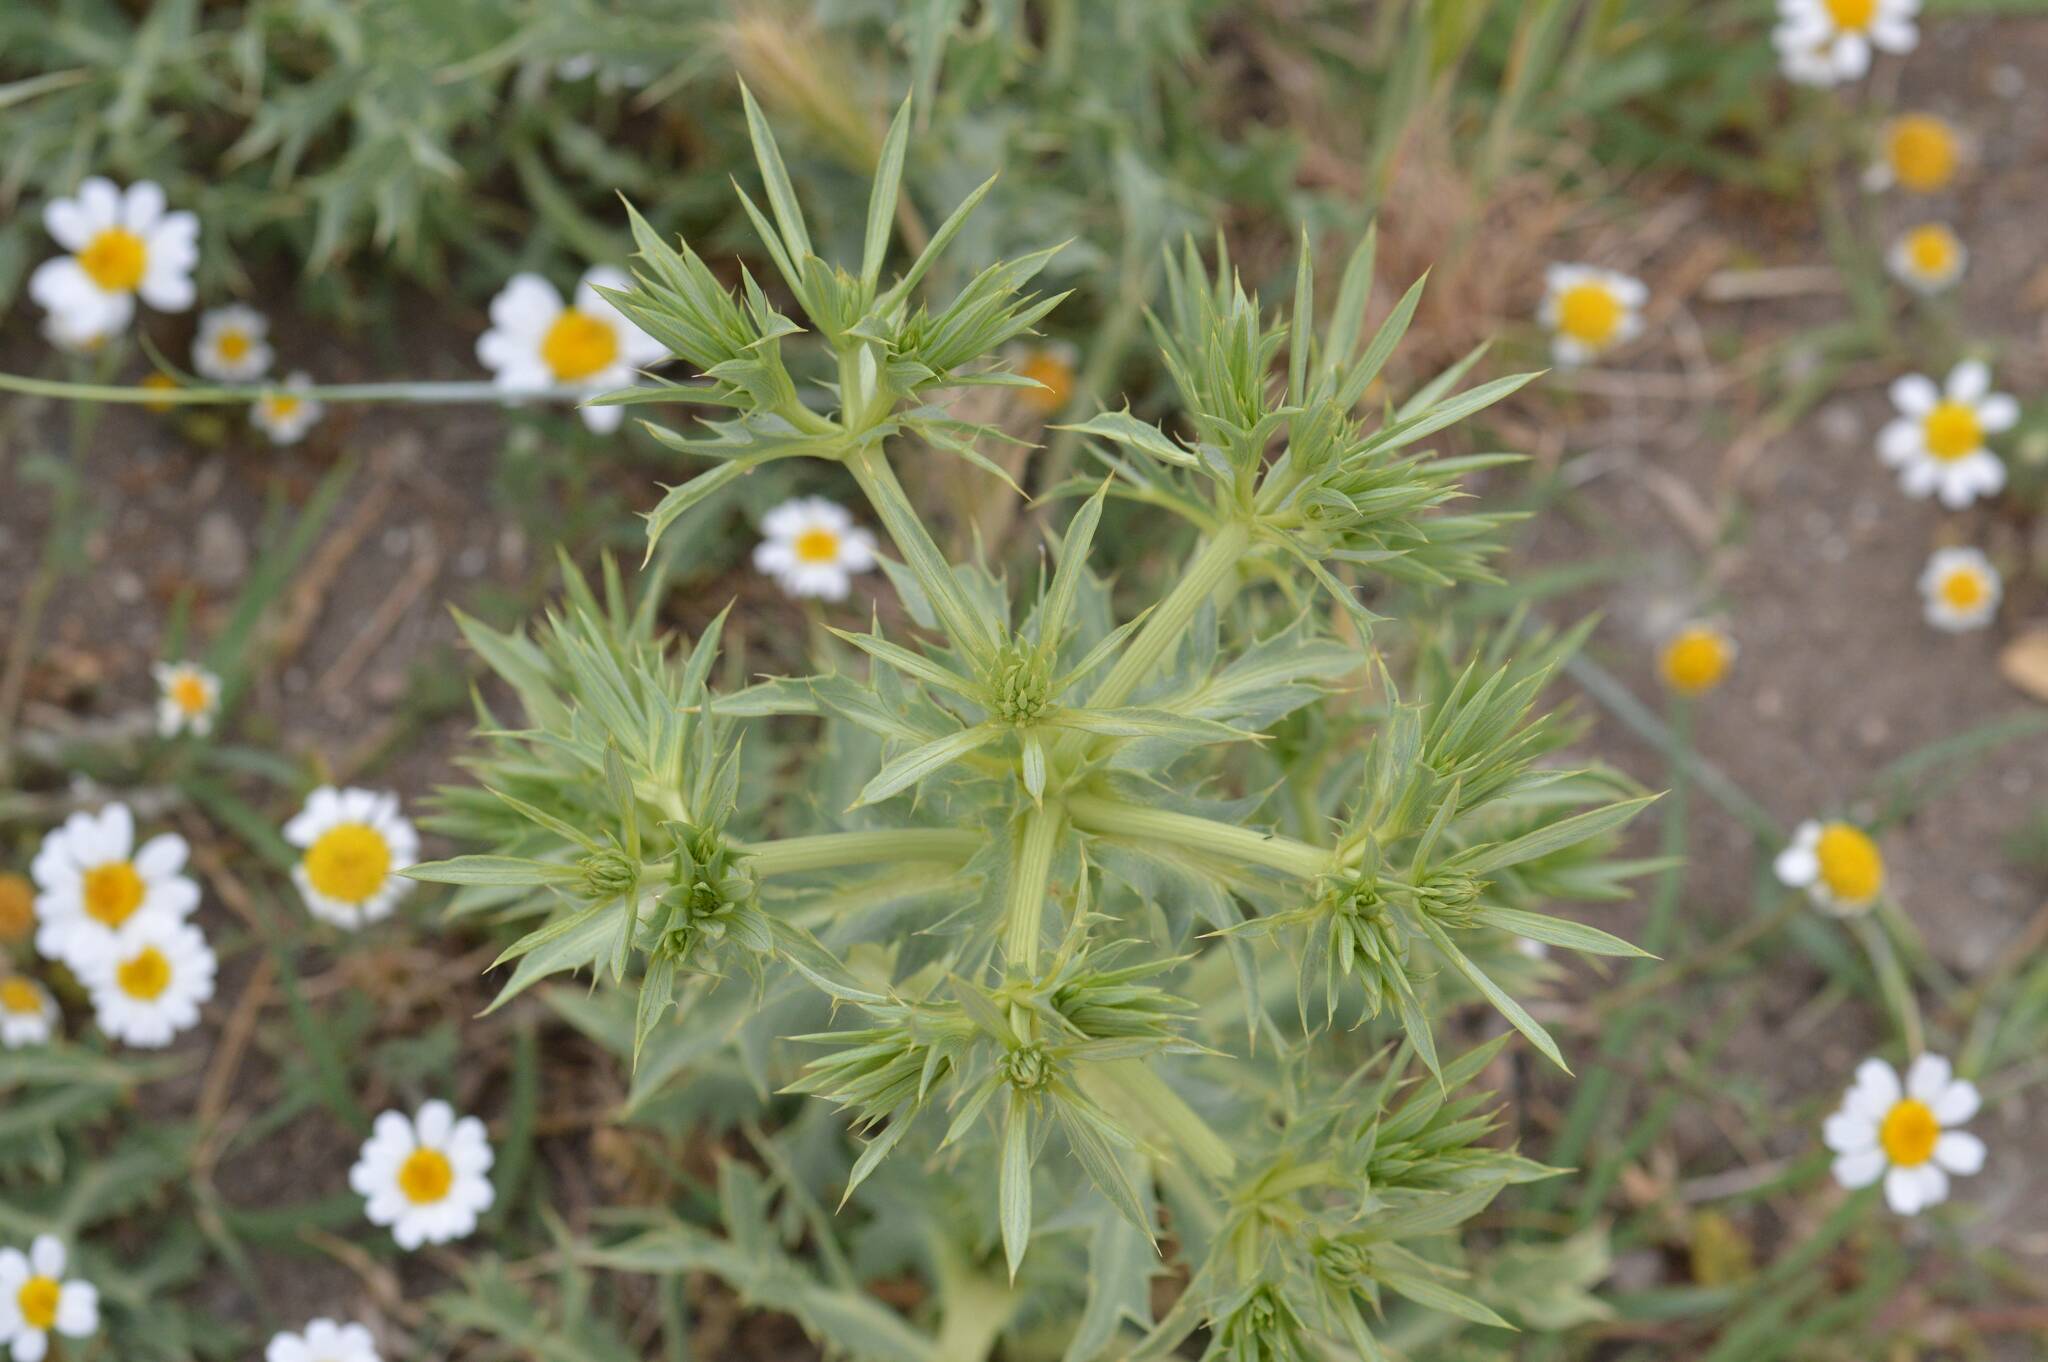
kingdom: Plantae
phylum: Tracheophyta
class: Magnoliopsida
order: Apiales
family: Apiaceae
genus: Eryngium
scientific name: Eryngium campestre
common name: Field eryngo
